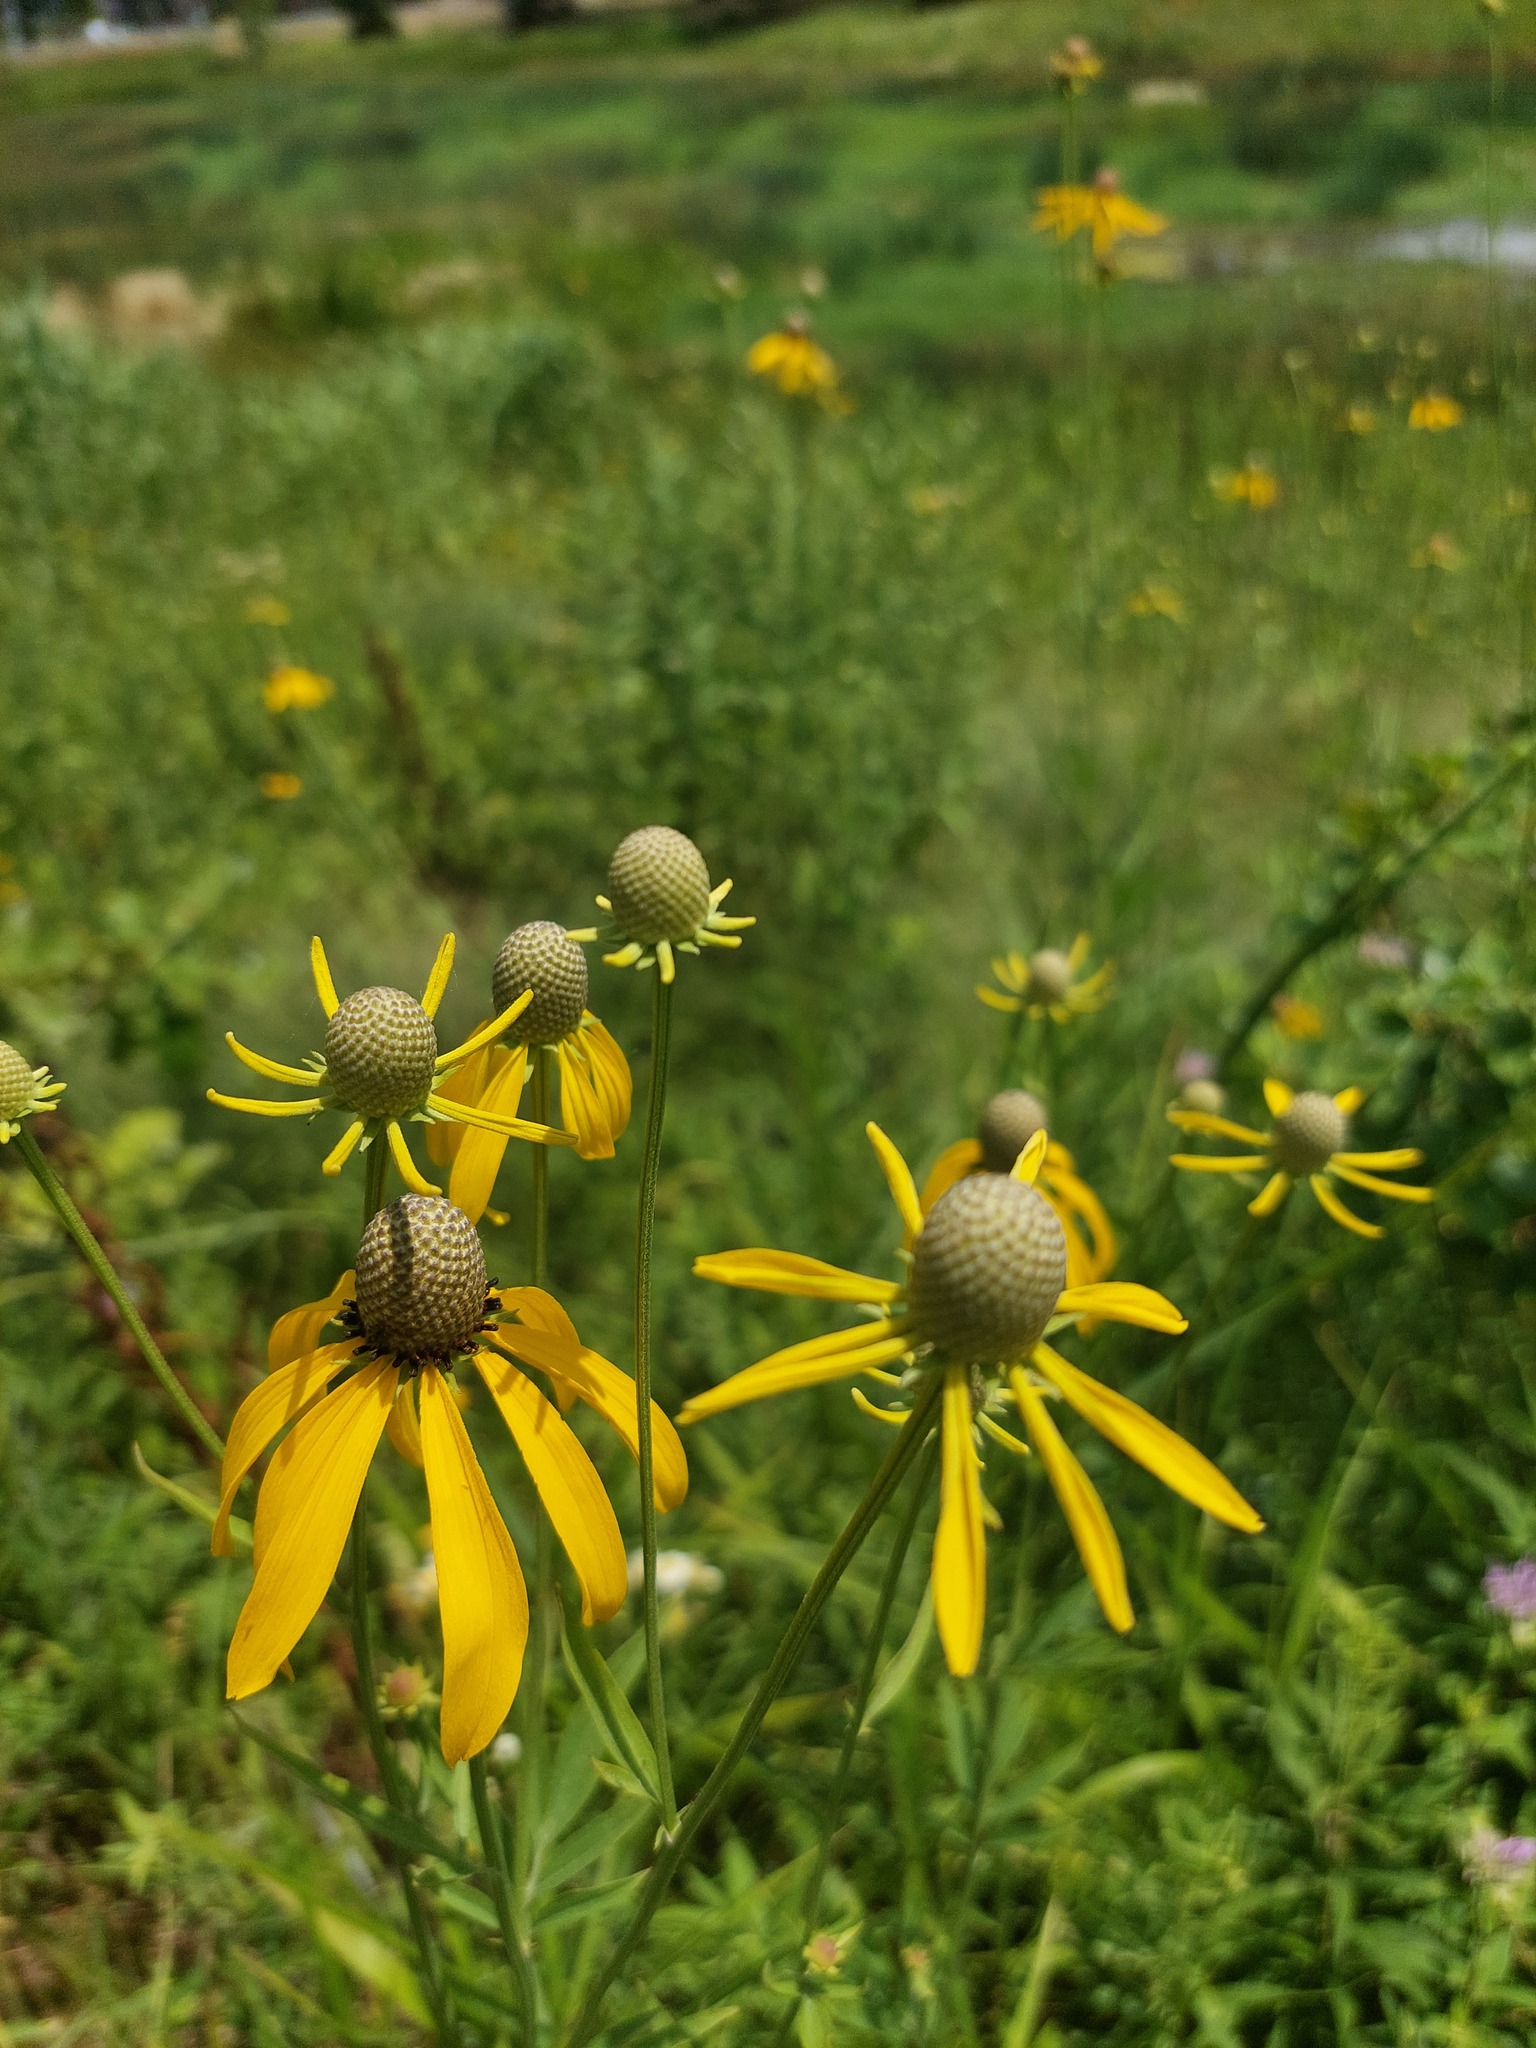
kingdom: Plantae
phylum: Tracheophyta
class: Magnoliopsida
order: Asterales
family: Asteraceae
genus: Ratibida
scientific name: Ratibida pinnata
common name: Drooping prairie-coneflower
